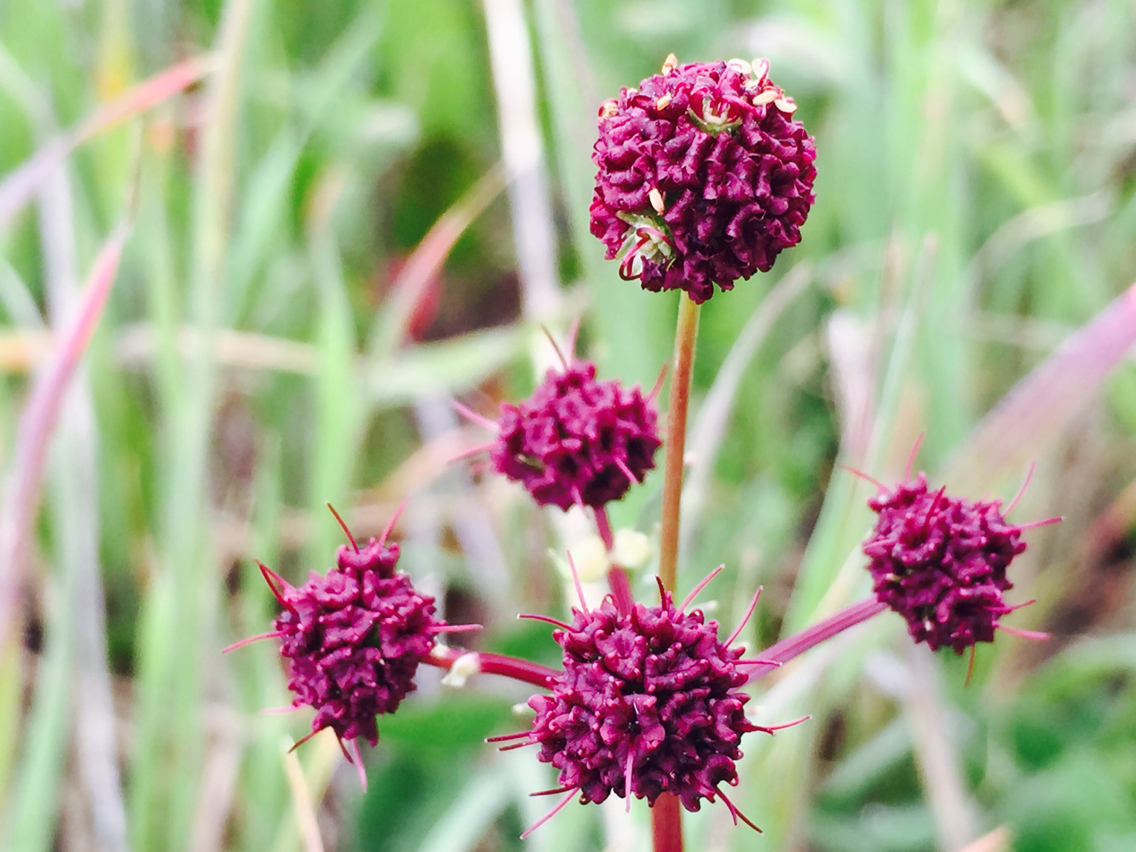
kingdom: Plantae
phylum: Tracheophyta
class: Magnoliopsida
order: Apiales
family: Apiaceae
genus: Sanicula
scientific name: Sanicula bipinnatifida
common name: Shoe-buttons
